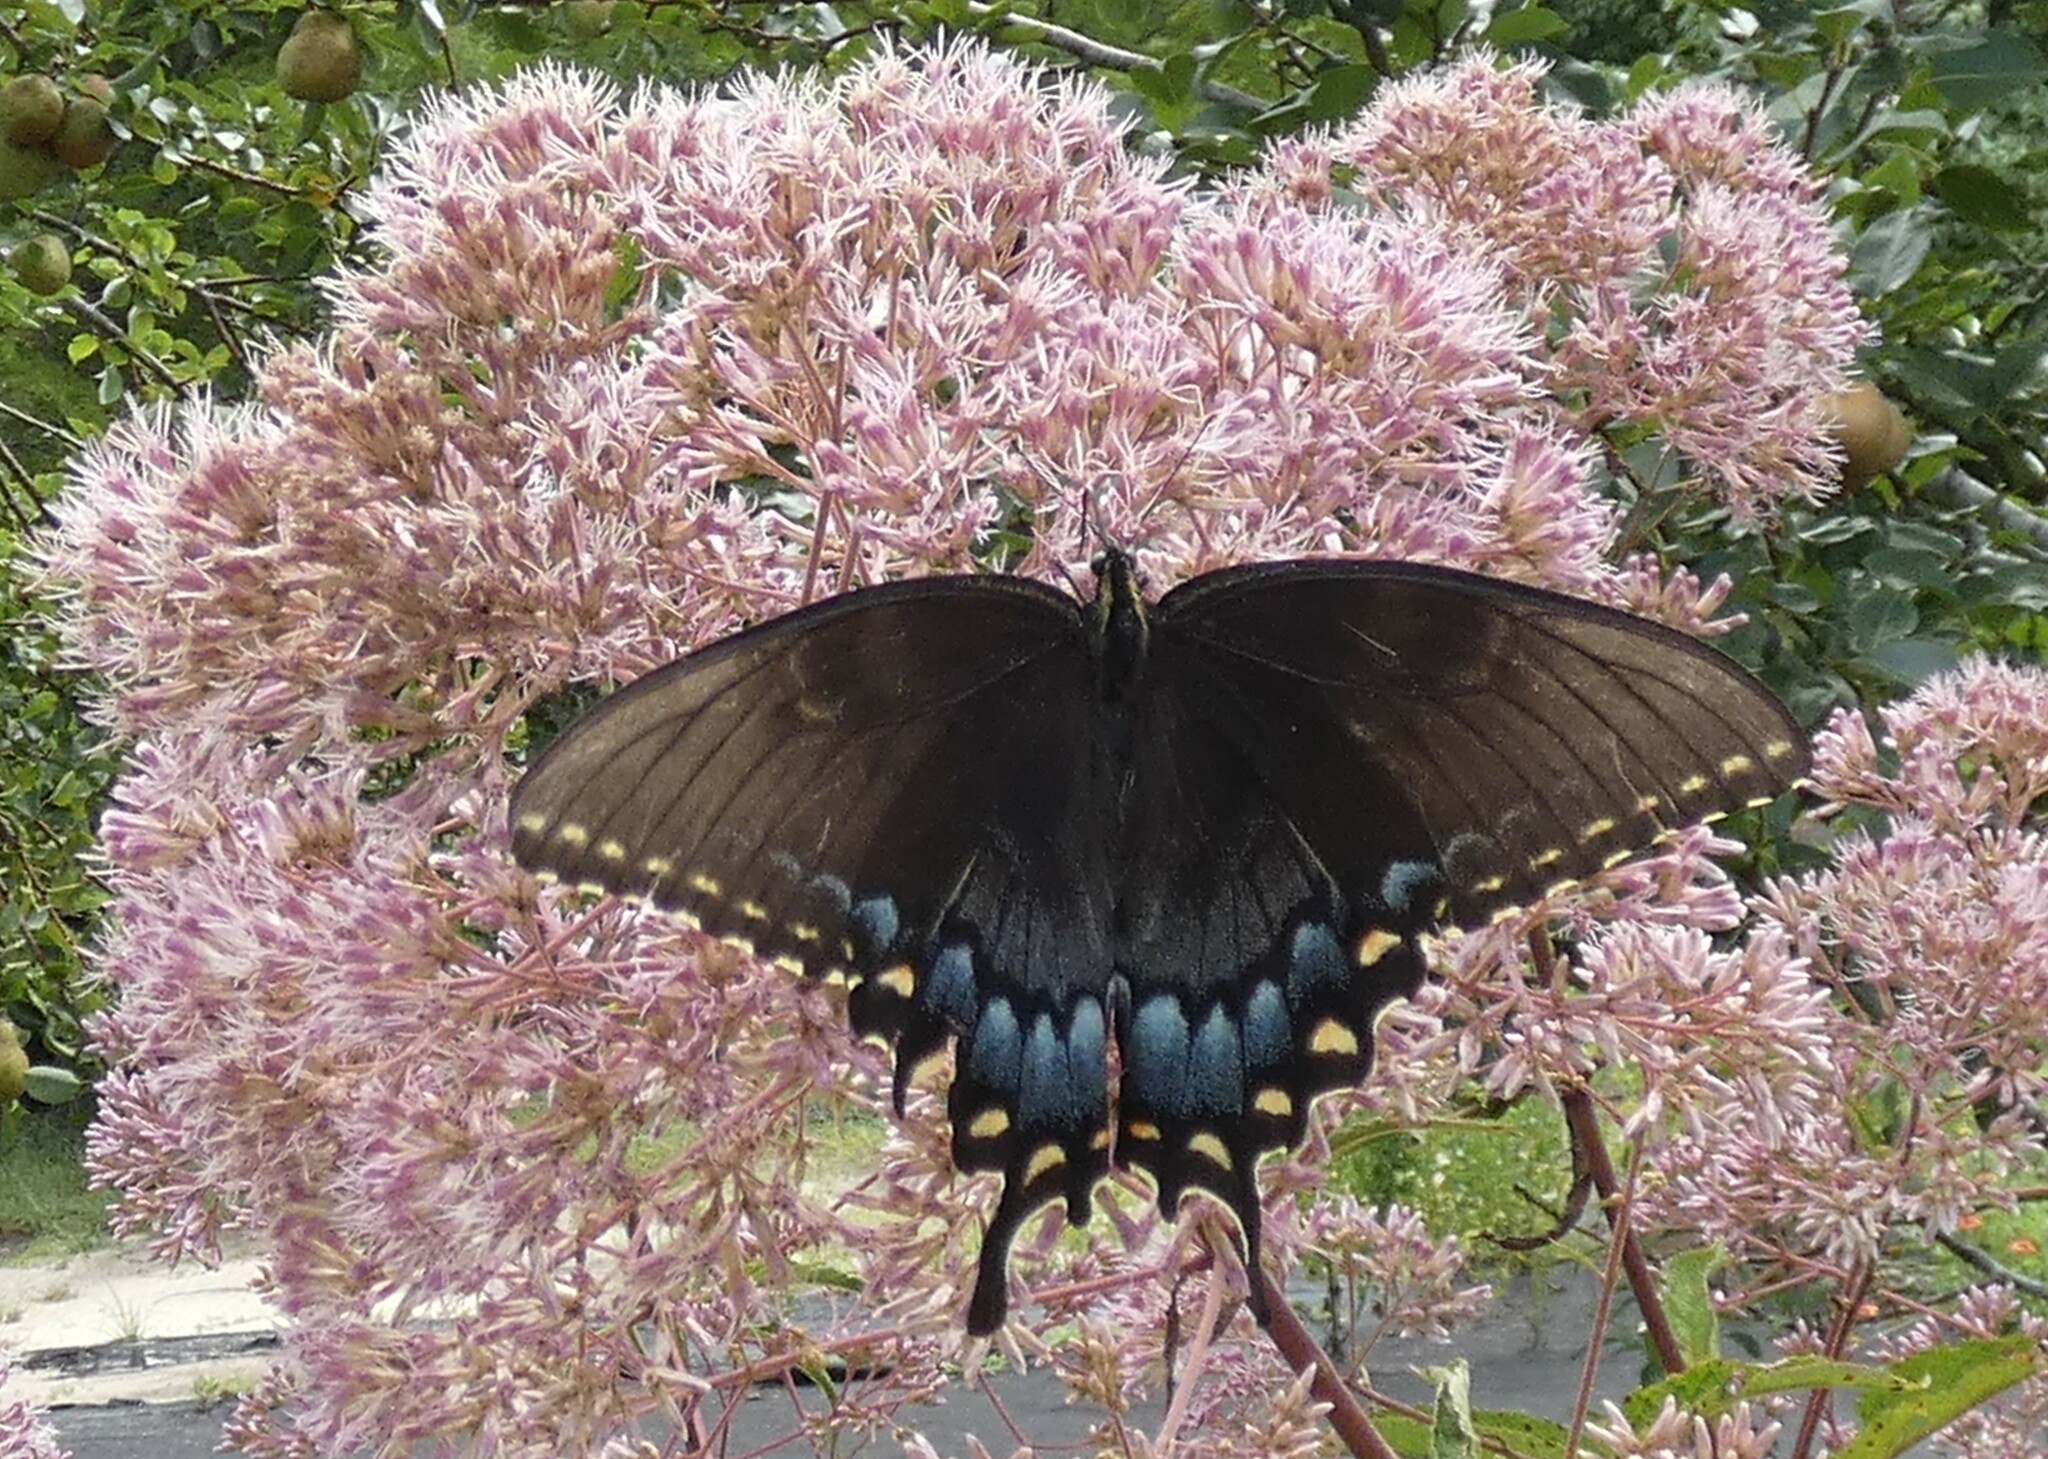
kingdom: Animalia
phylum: Arthropoda
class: Insecta
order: Lepidoptera
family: Papilionidae
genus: Papilio
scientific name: Papilio glaucus
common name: Tiger swallowtail
